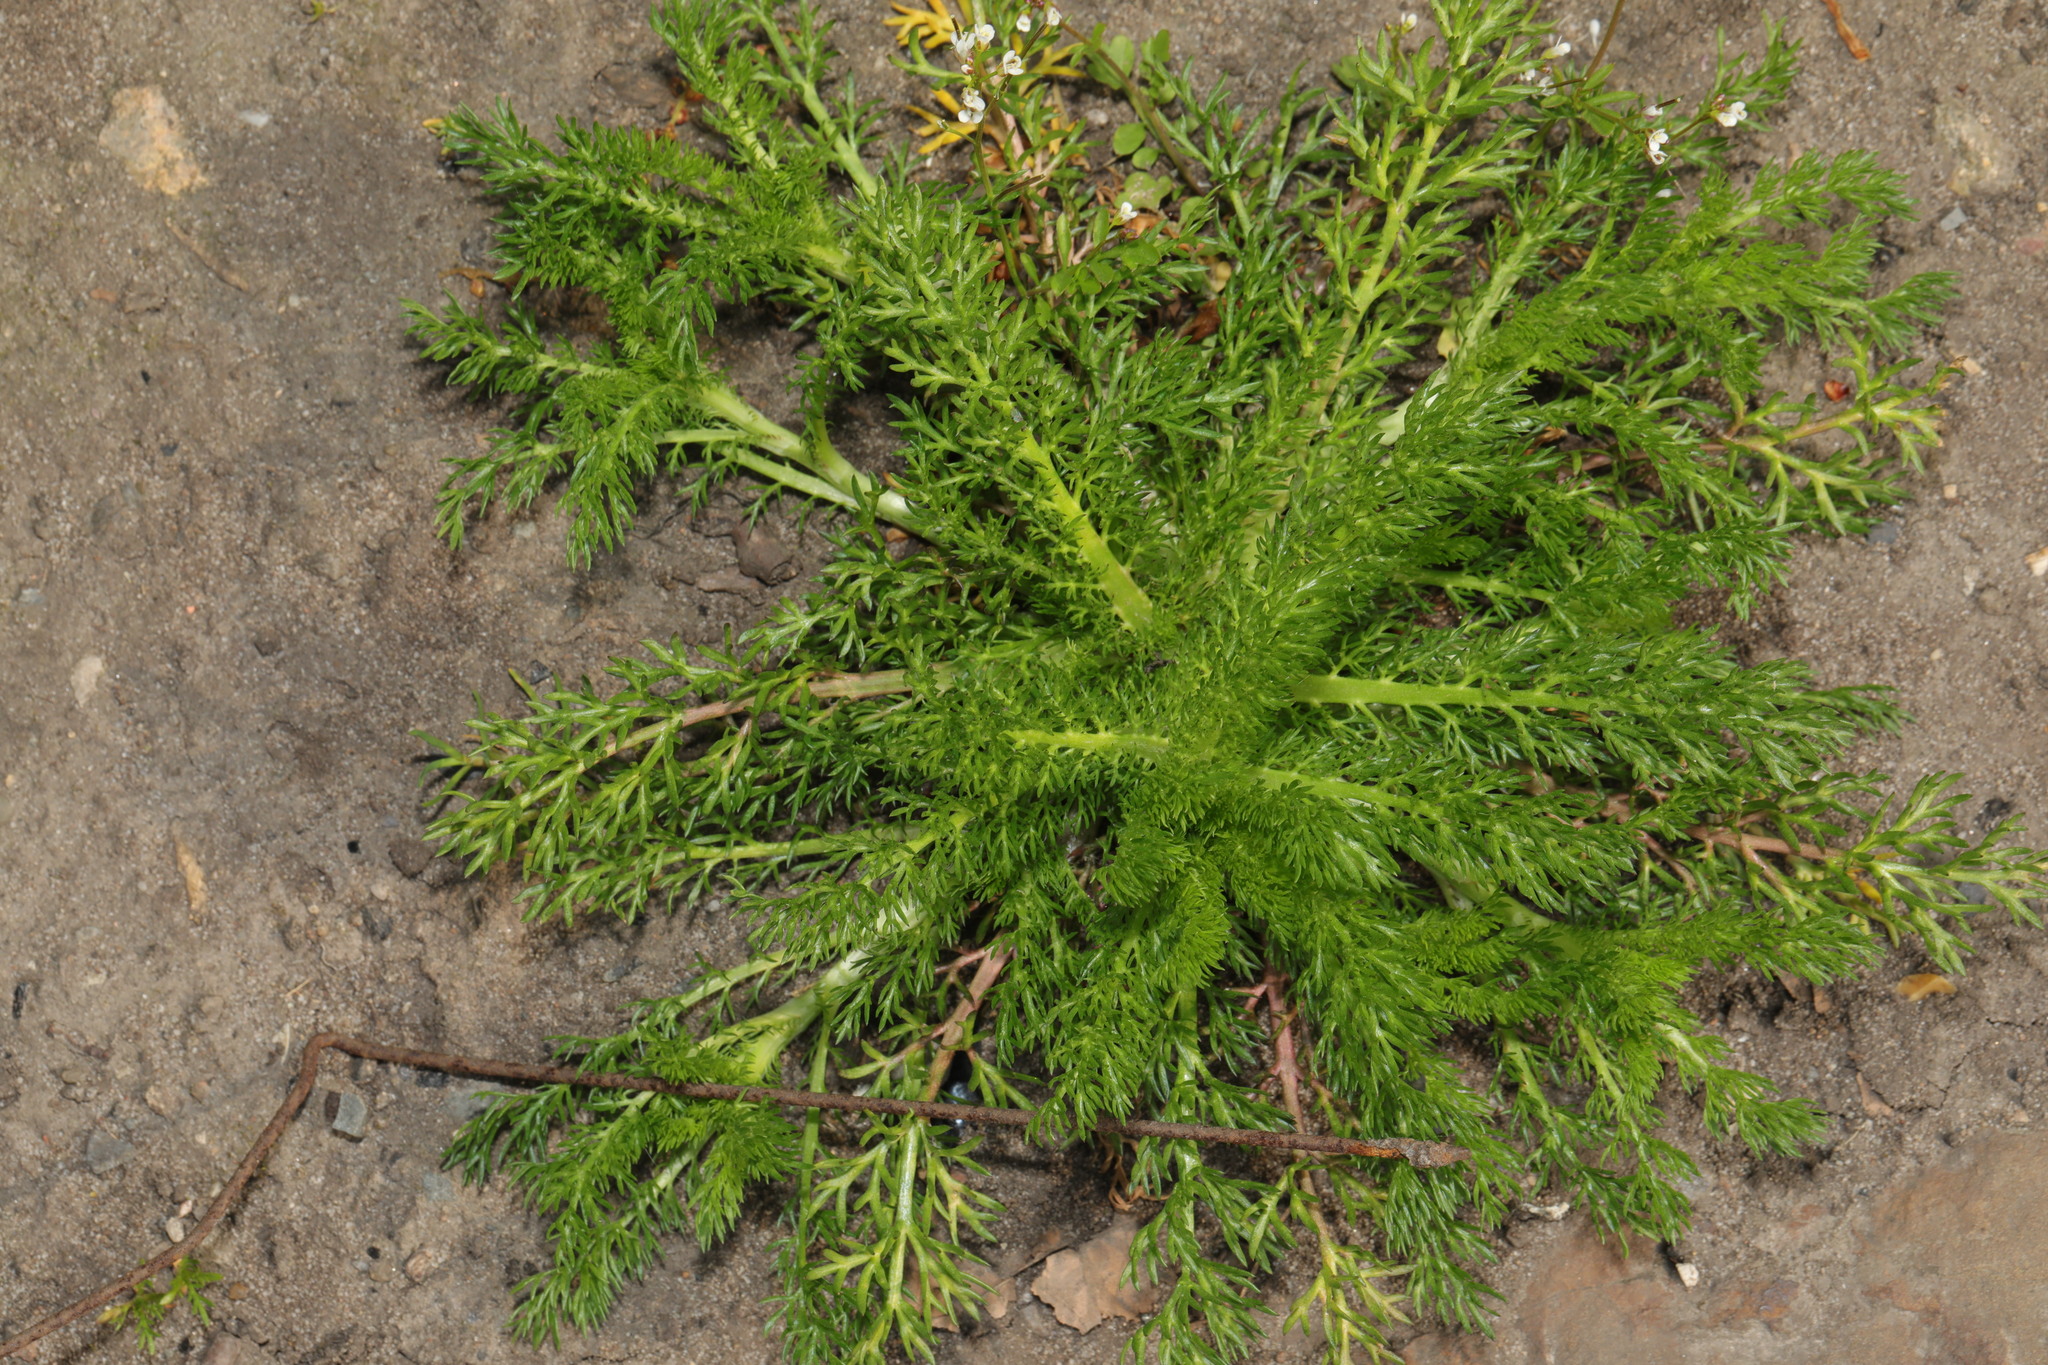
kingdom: Plantae
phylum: Tracheophyta
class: Magnoliopsida
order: Asterales
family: Asteraceae
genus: Matricaria
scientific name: Matricaria discoidea
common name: Disc mayweed
